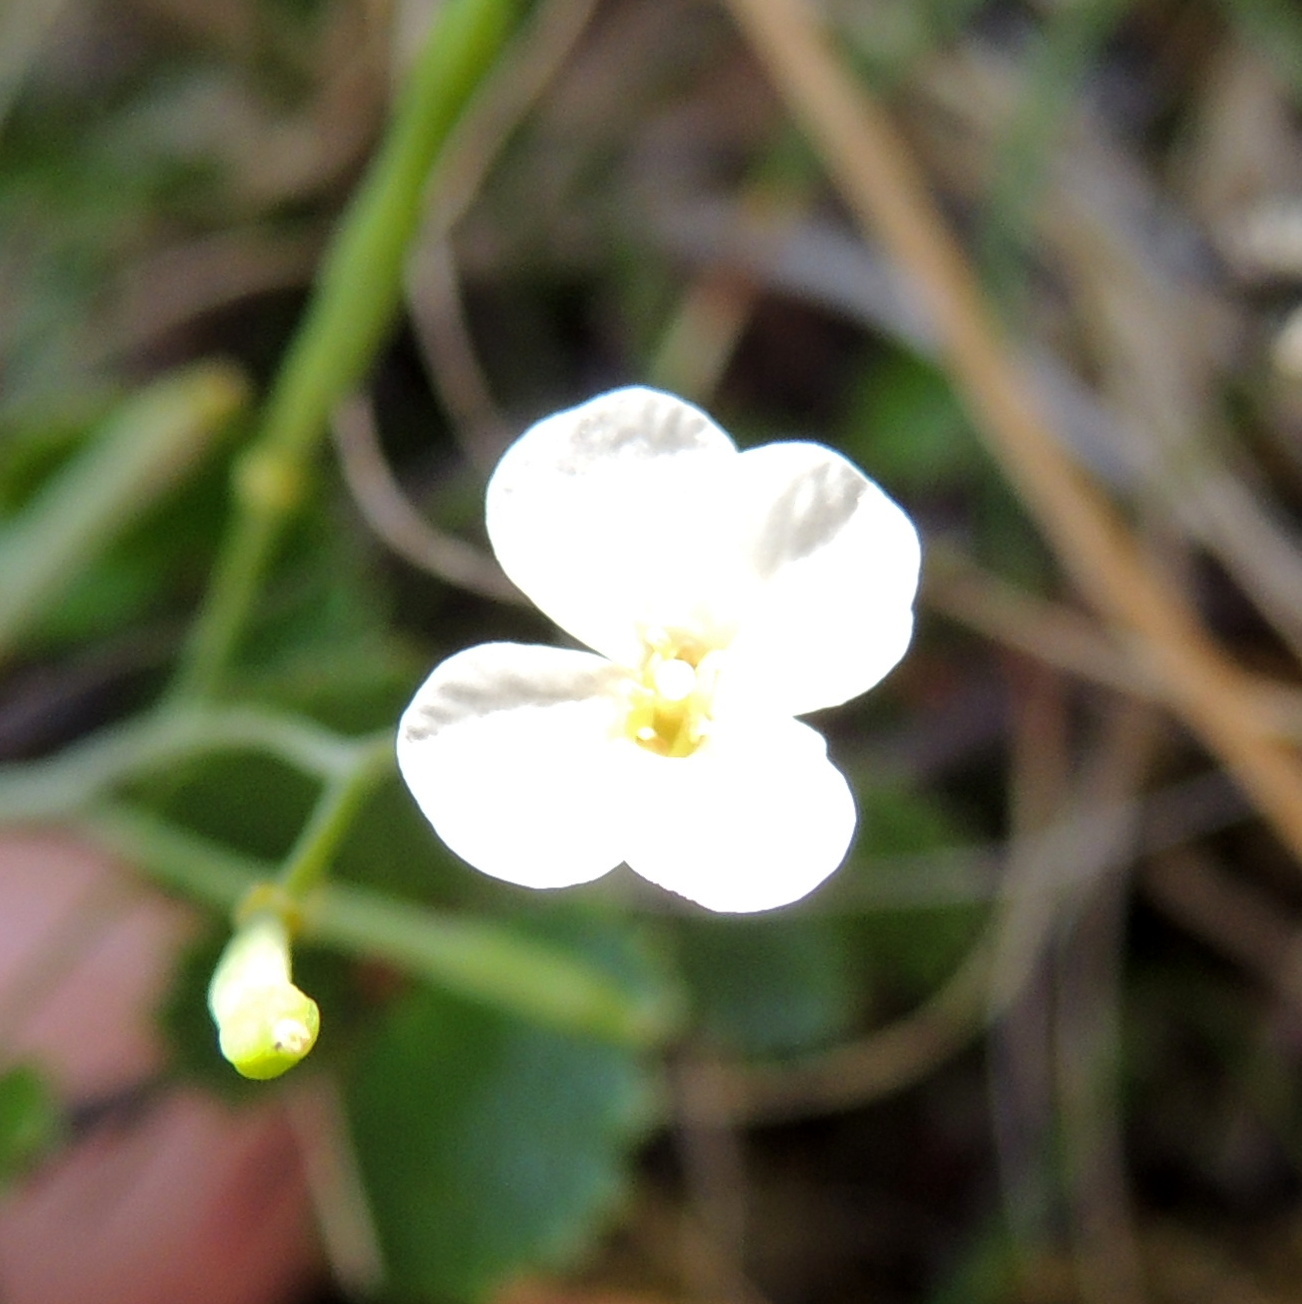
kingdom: Plantae
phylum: Tracheophyta
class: Magnoliopsida
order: Brassicales
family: Brassicaceae
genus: Arabidopsis
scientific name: Arabidopsis lyrata
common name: Lyrate rockcress
